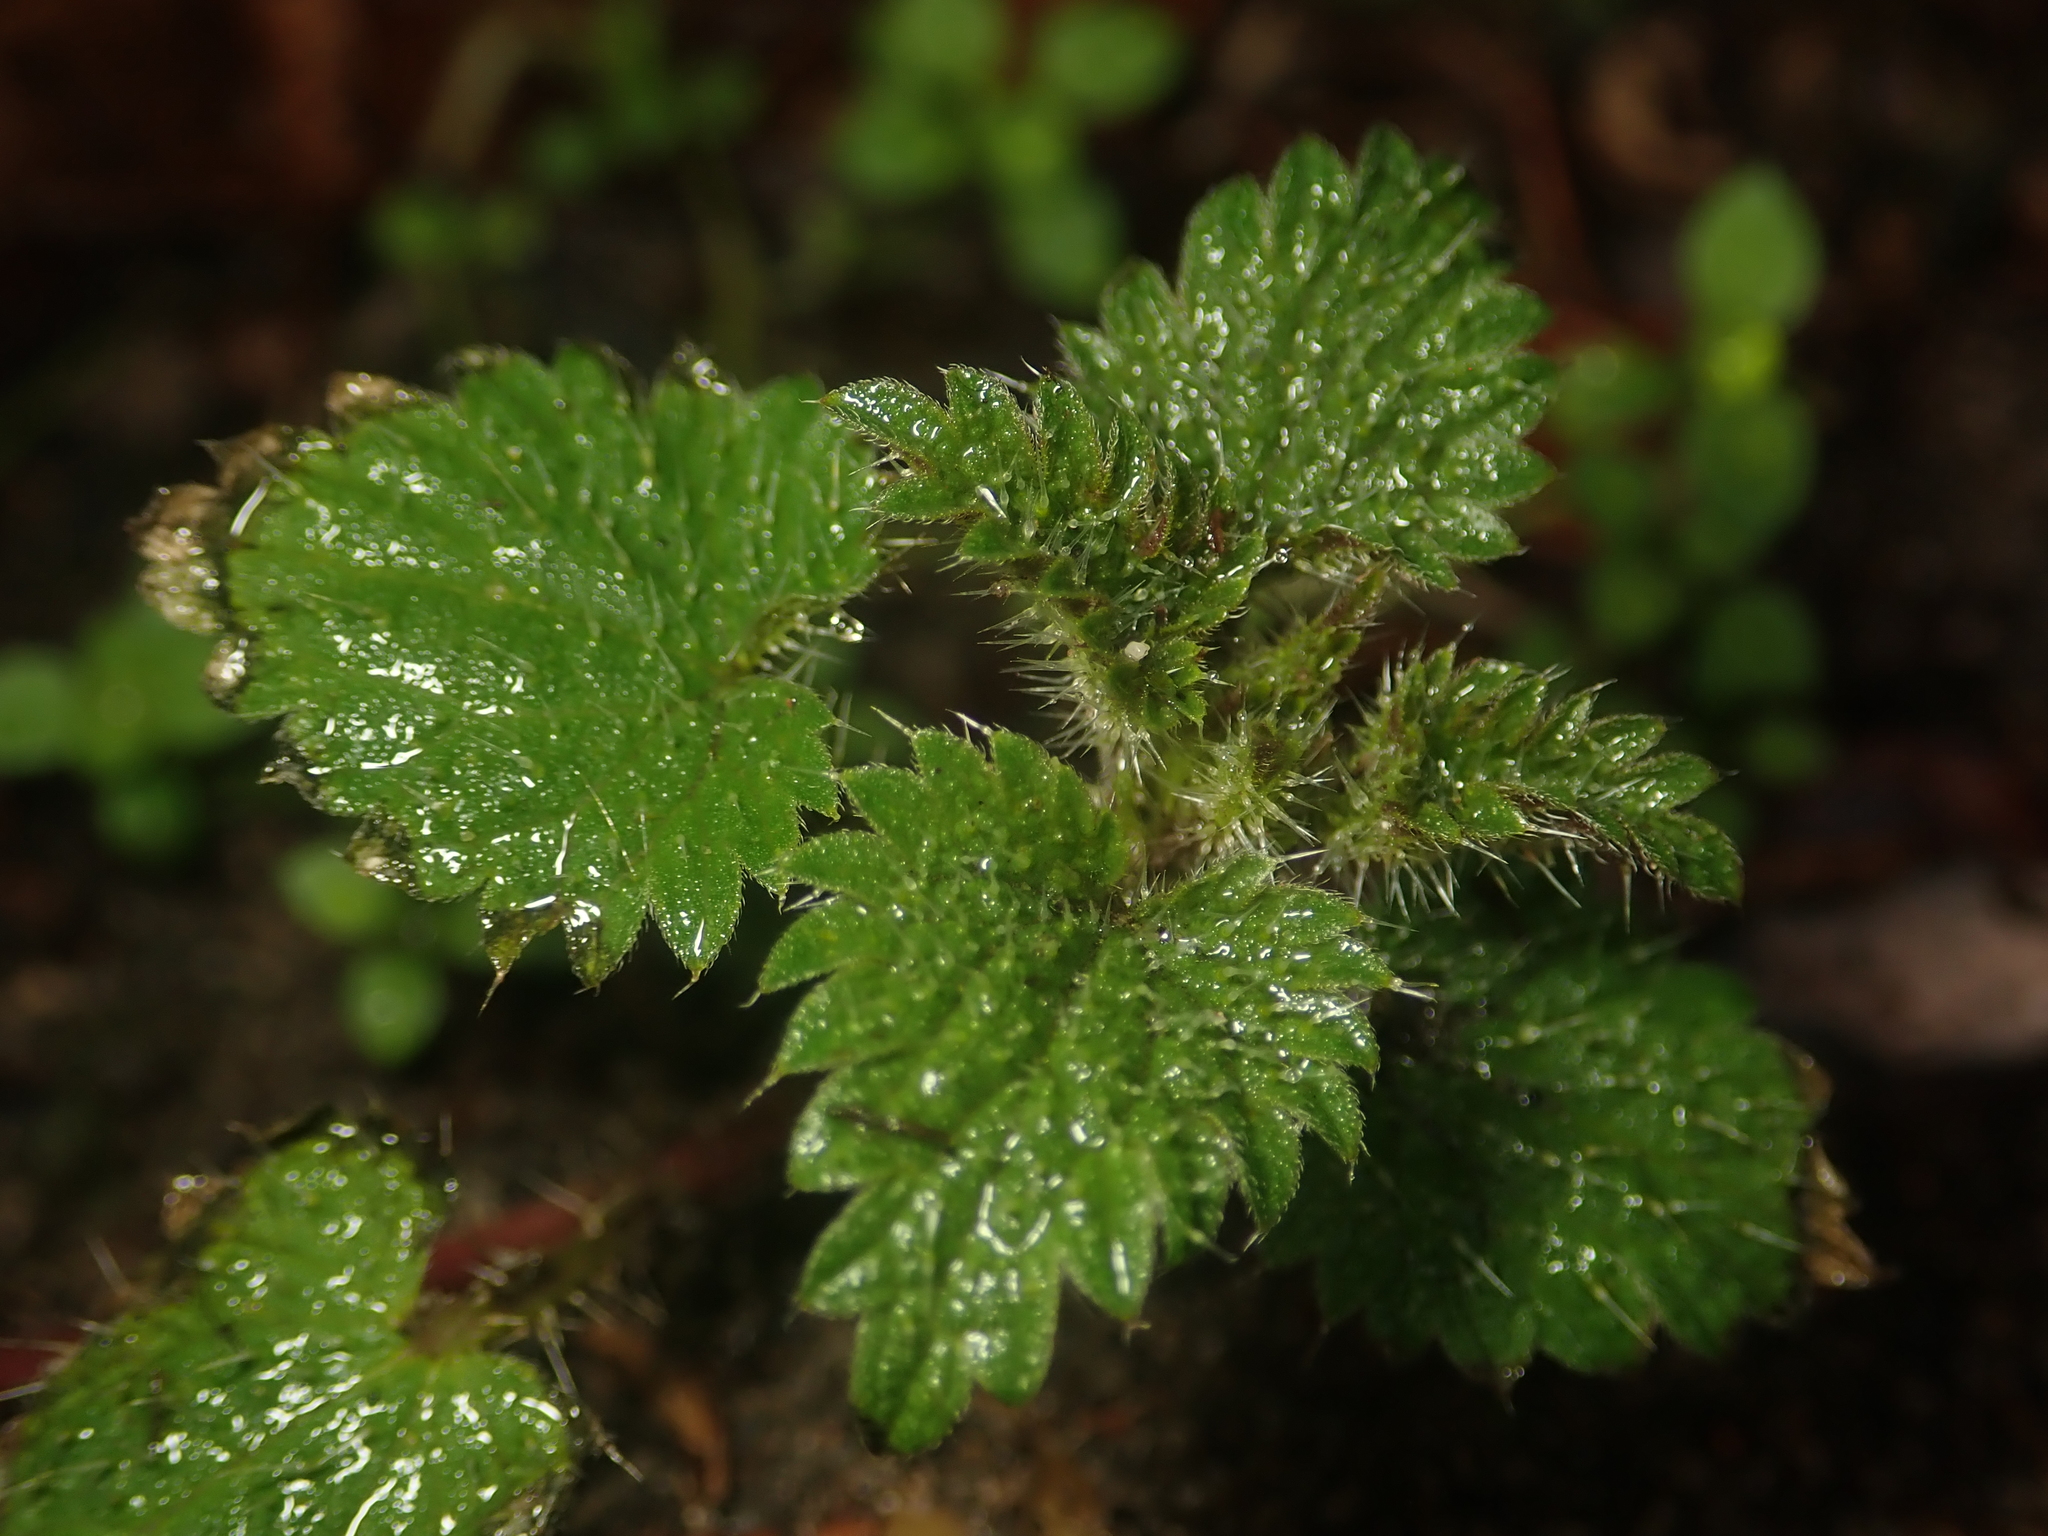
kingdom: Plantae
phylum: Tracheophyta
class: Magnoliopsida
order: Rosales
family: Urticaceae
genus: Urtica
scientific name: Urtica dioica
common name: Common nettle
